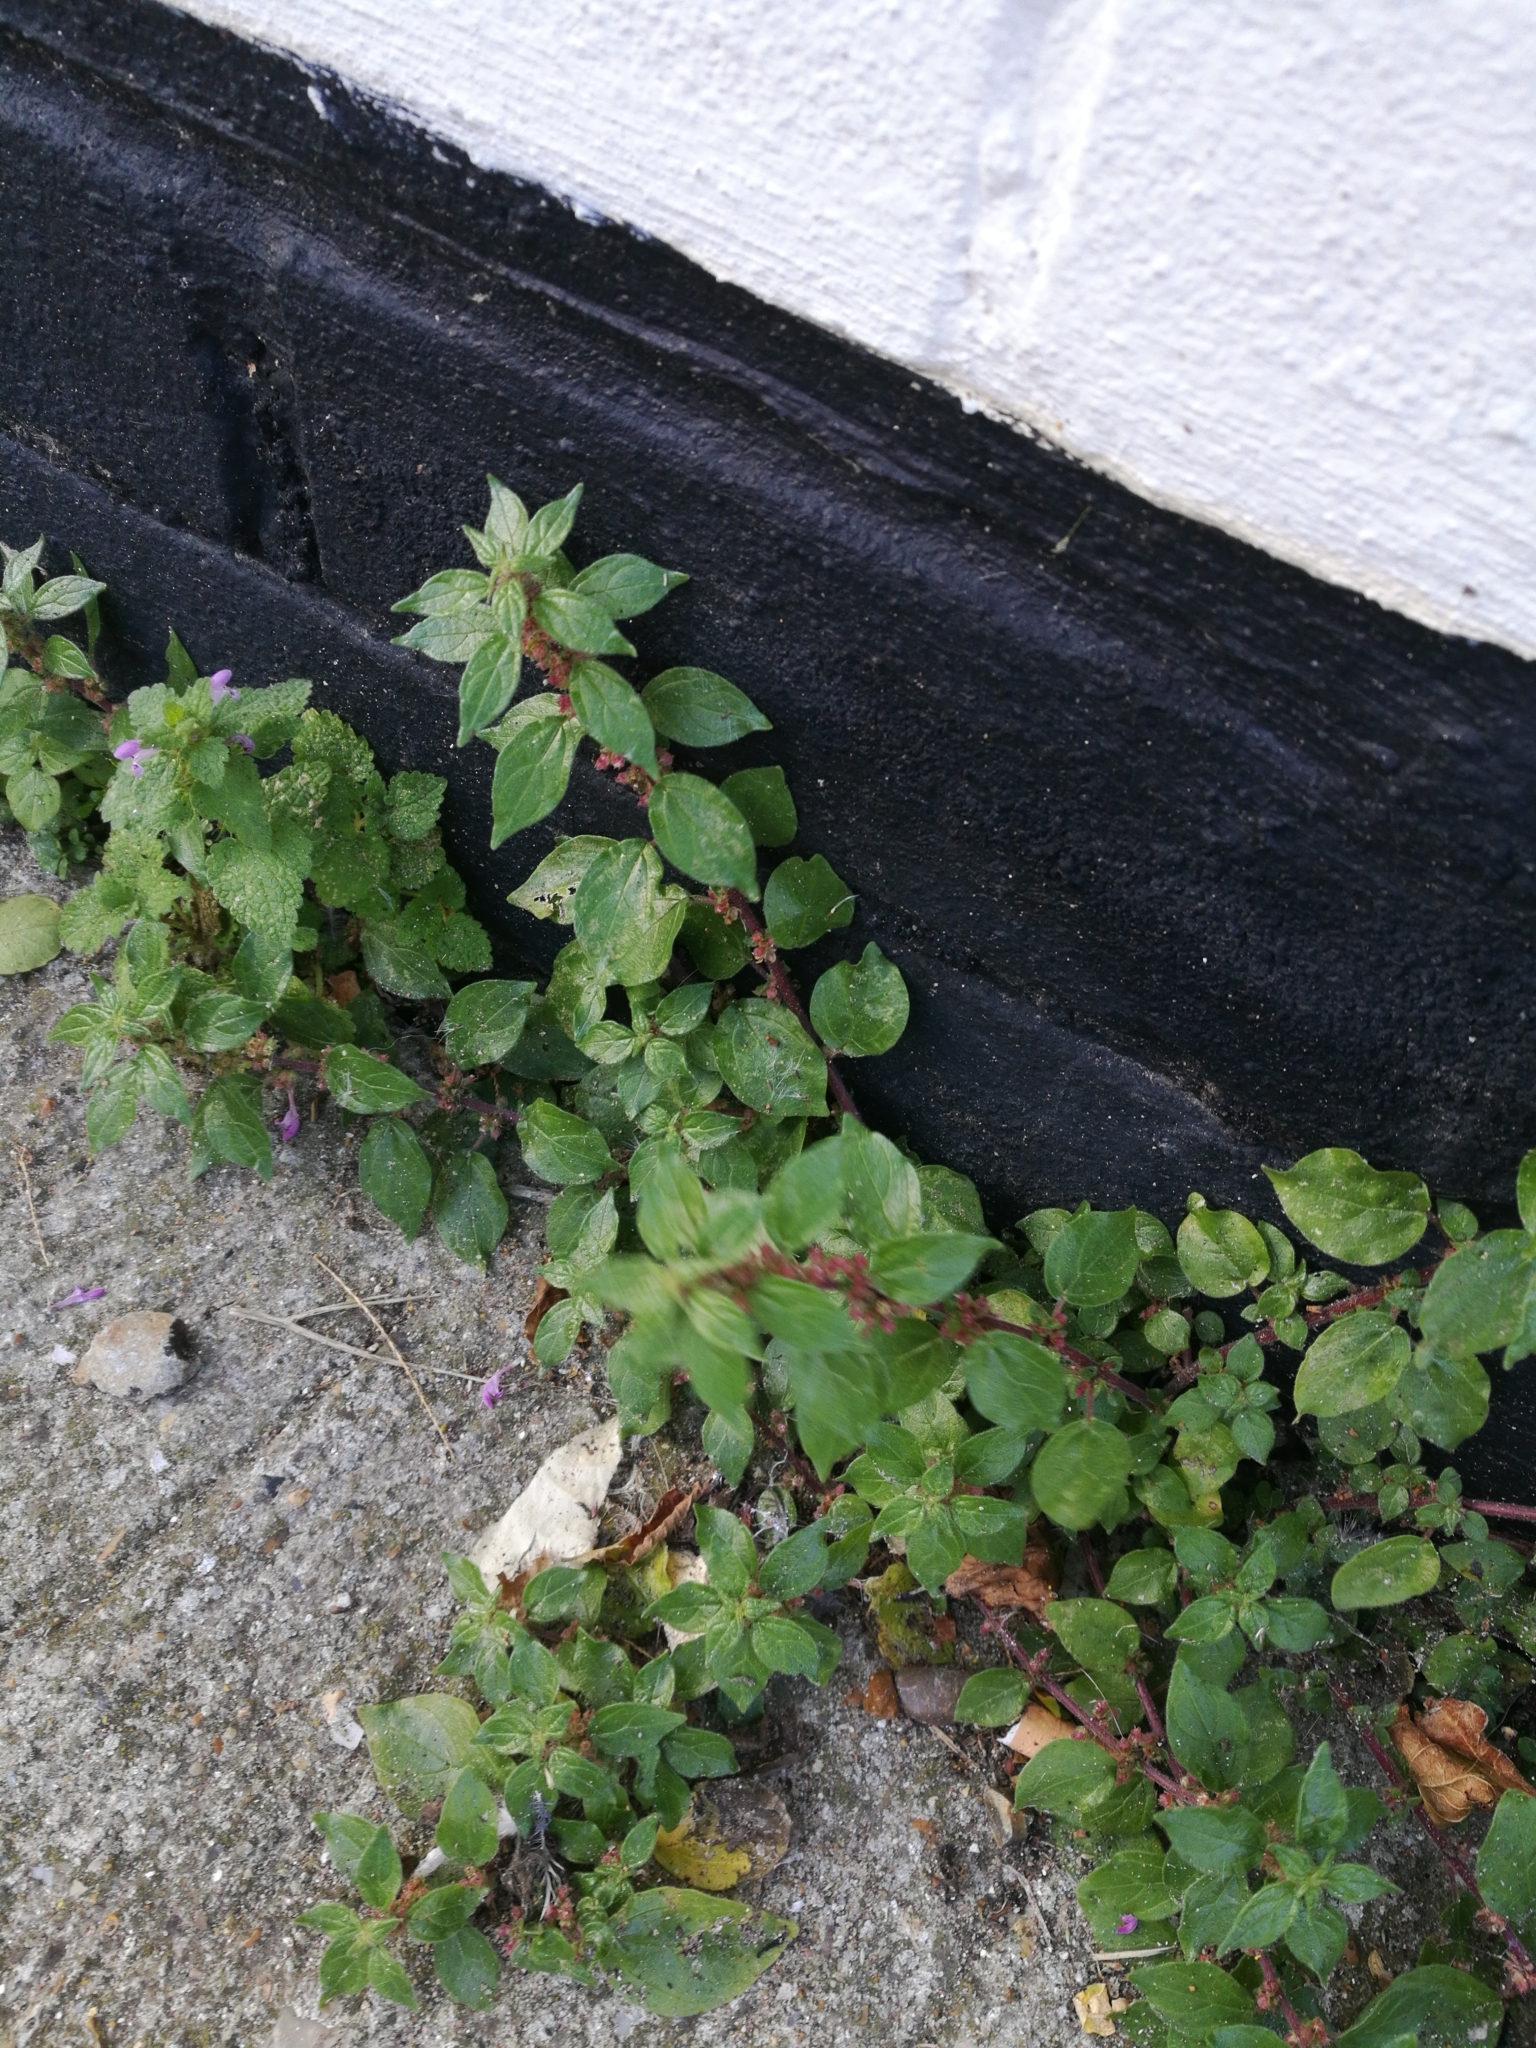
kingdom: Plantae
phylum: Tracheophyta
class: Magnoliopsida
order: Rosales
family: Urticaceae
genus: Parietaria
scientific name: Parietaria judaica
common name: Pellitory-of-the-wall
